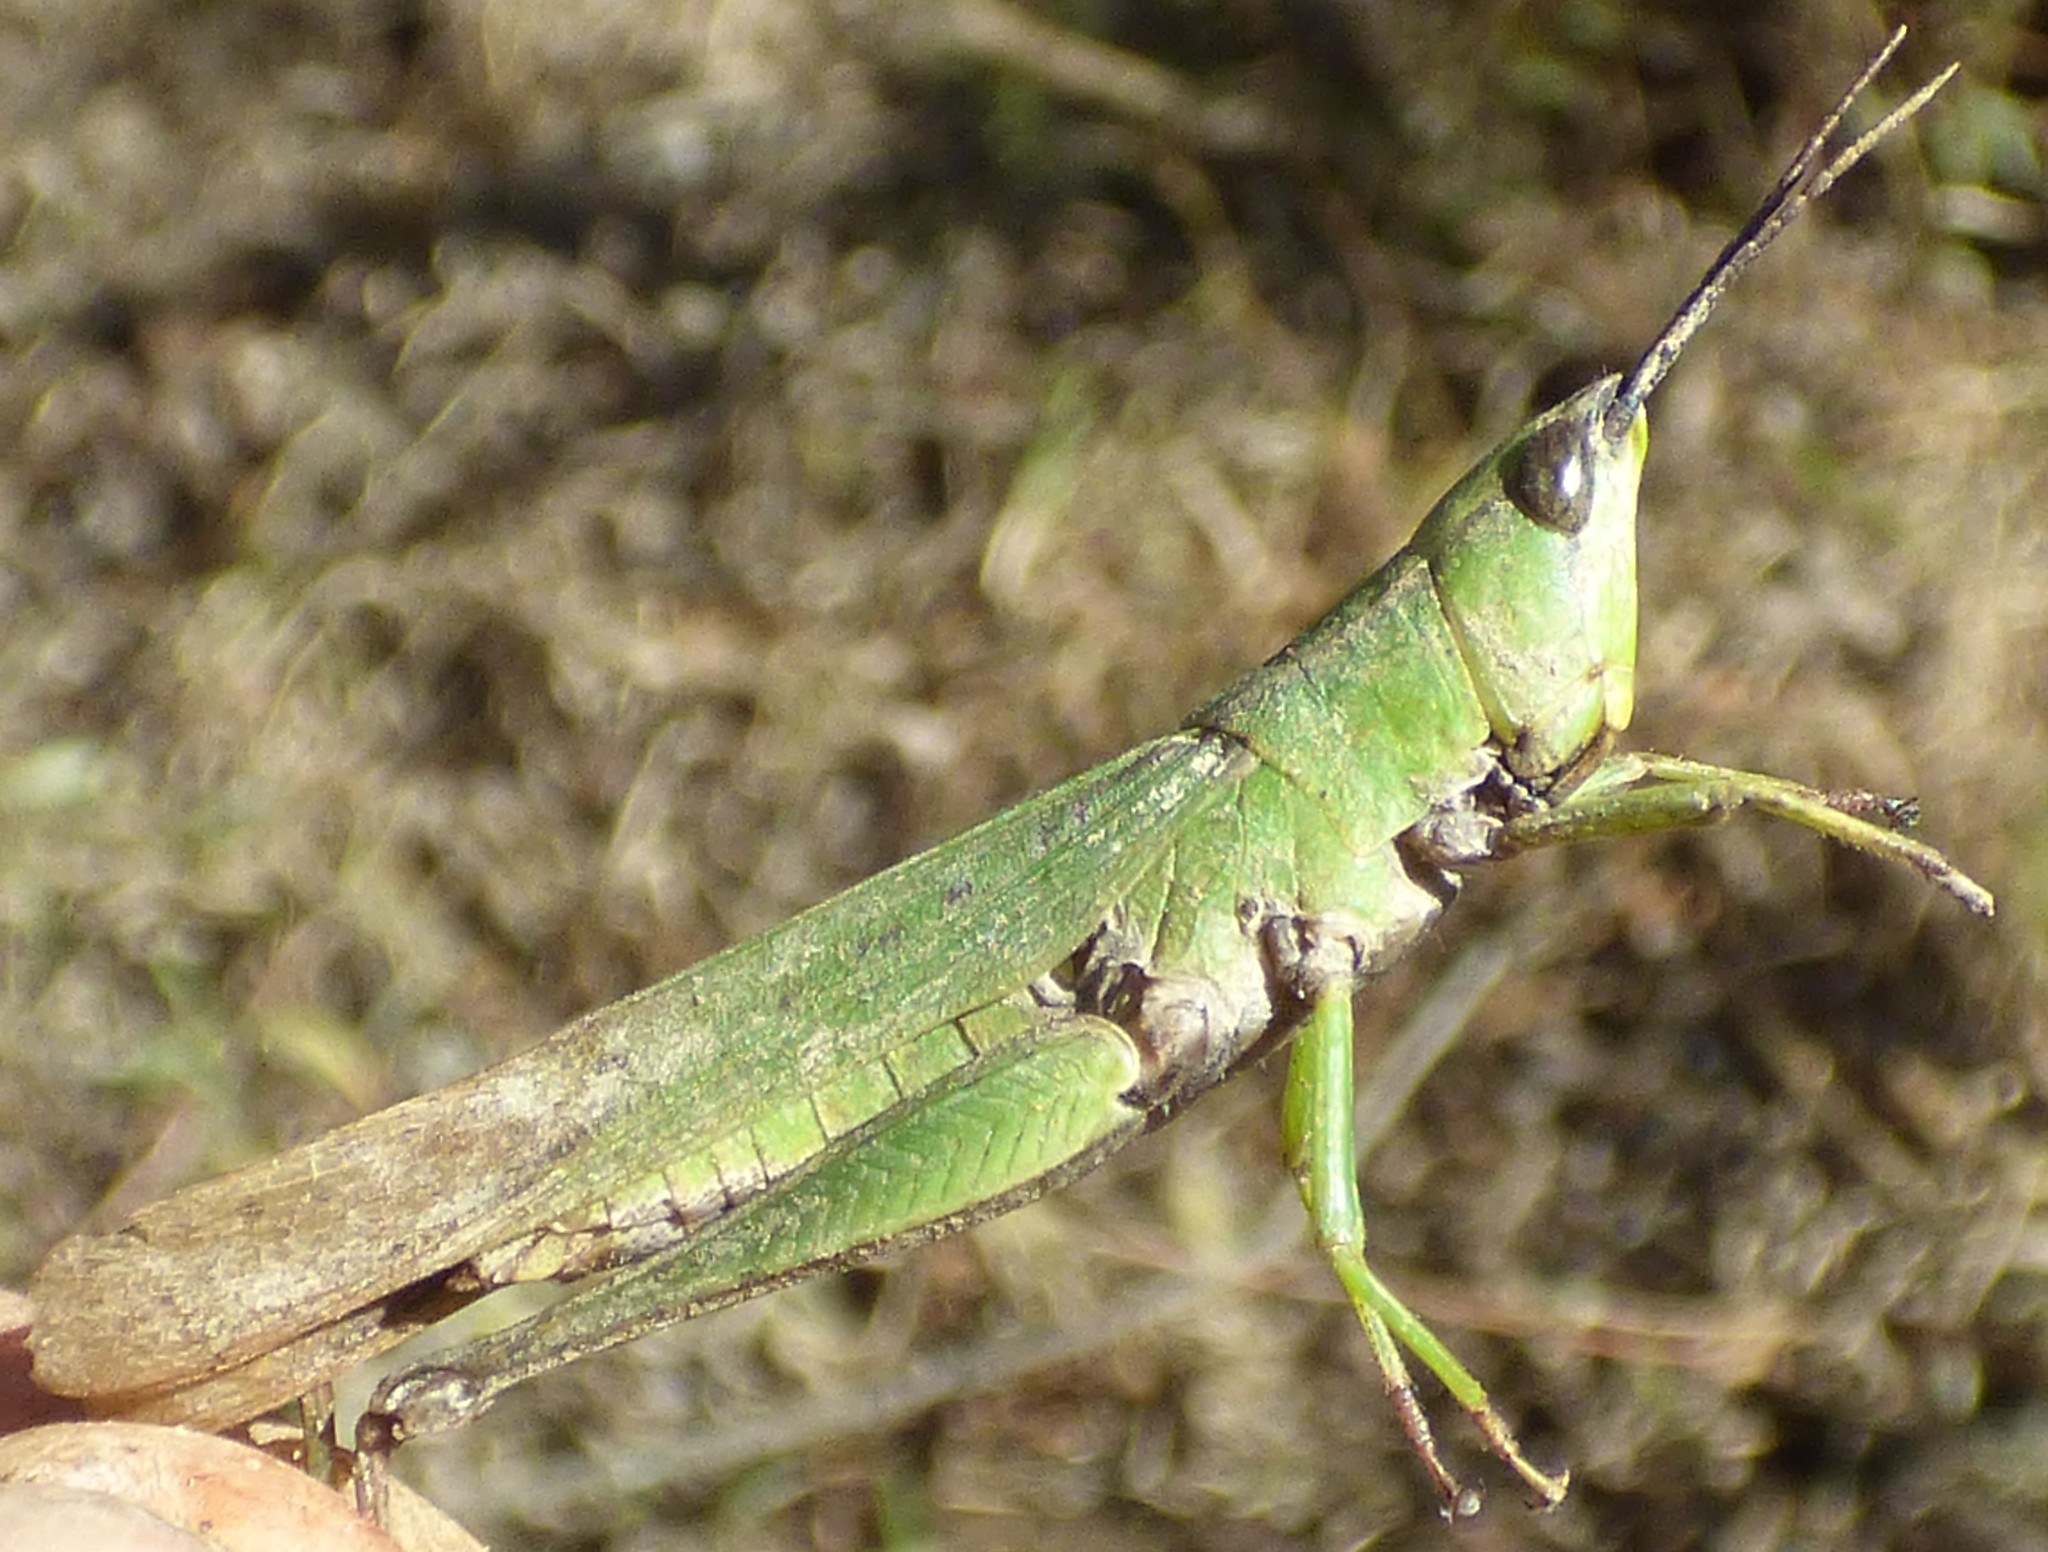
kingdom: Animalia
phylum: Arthropoda
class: Insecta
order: Orthoptera
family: Acrididae
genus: Metaleptea
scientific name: Metaleptea brevicornis
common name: Clipped-wing grasshopper
